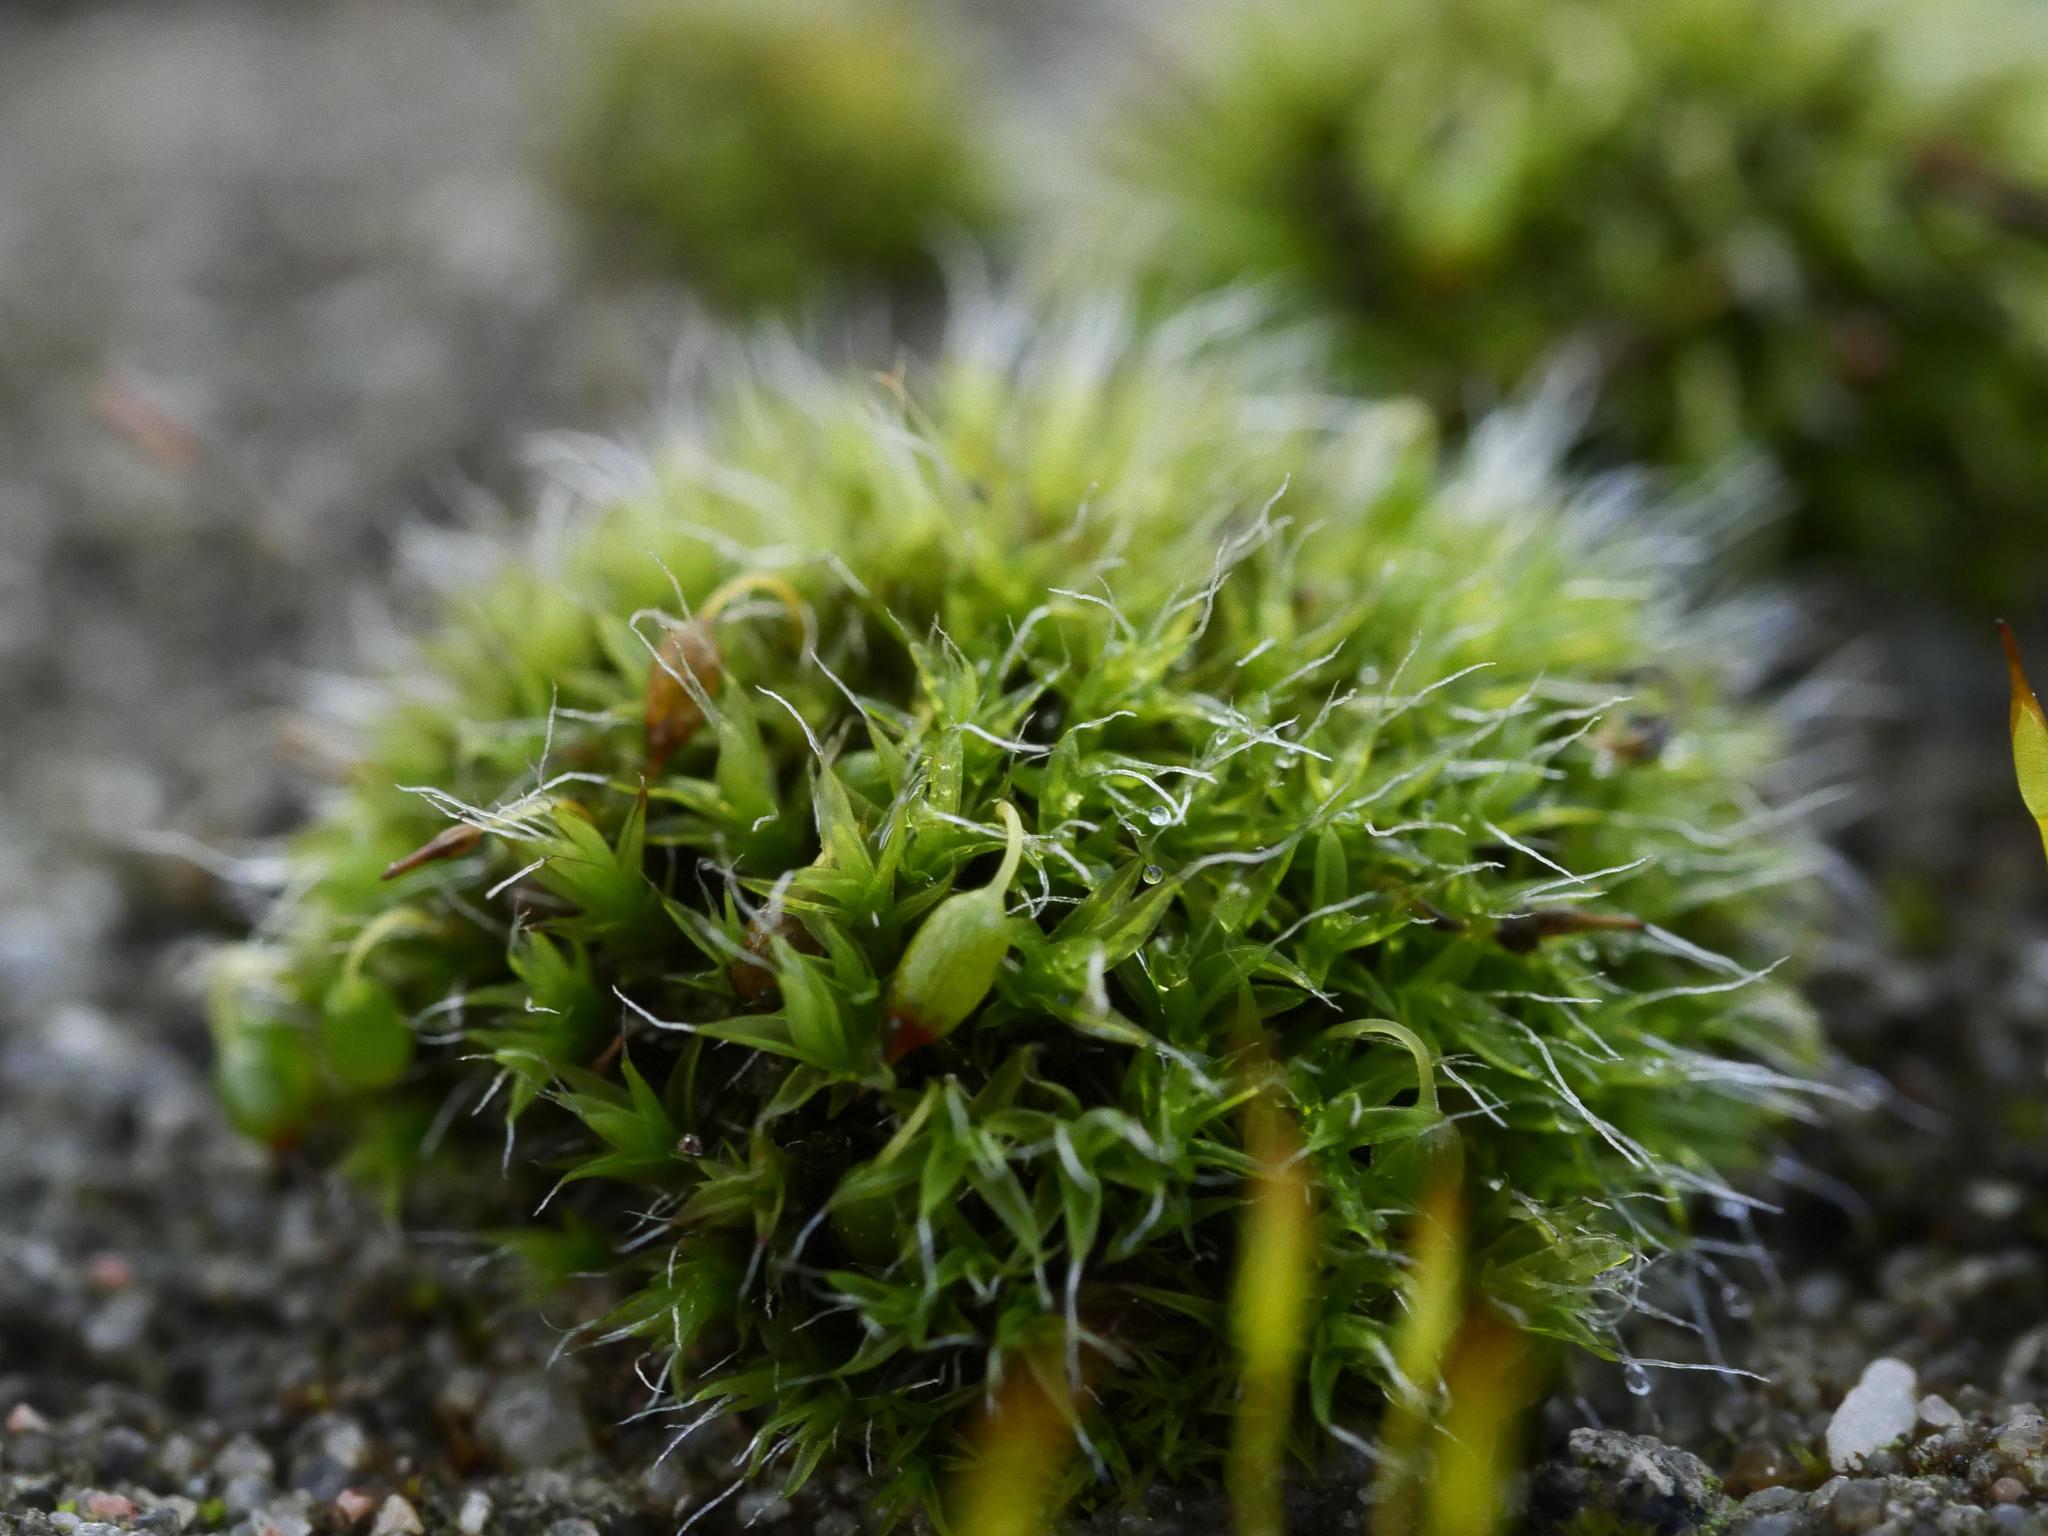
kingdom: Plantae
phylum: Bryophyta
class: Bryopsida
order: Grimmiales
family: Grimmiaceae
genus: Grimmia
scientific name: Grimmia pulvinata
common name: Grey-cushioned grimmia
